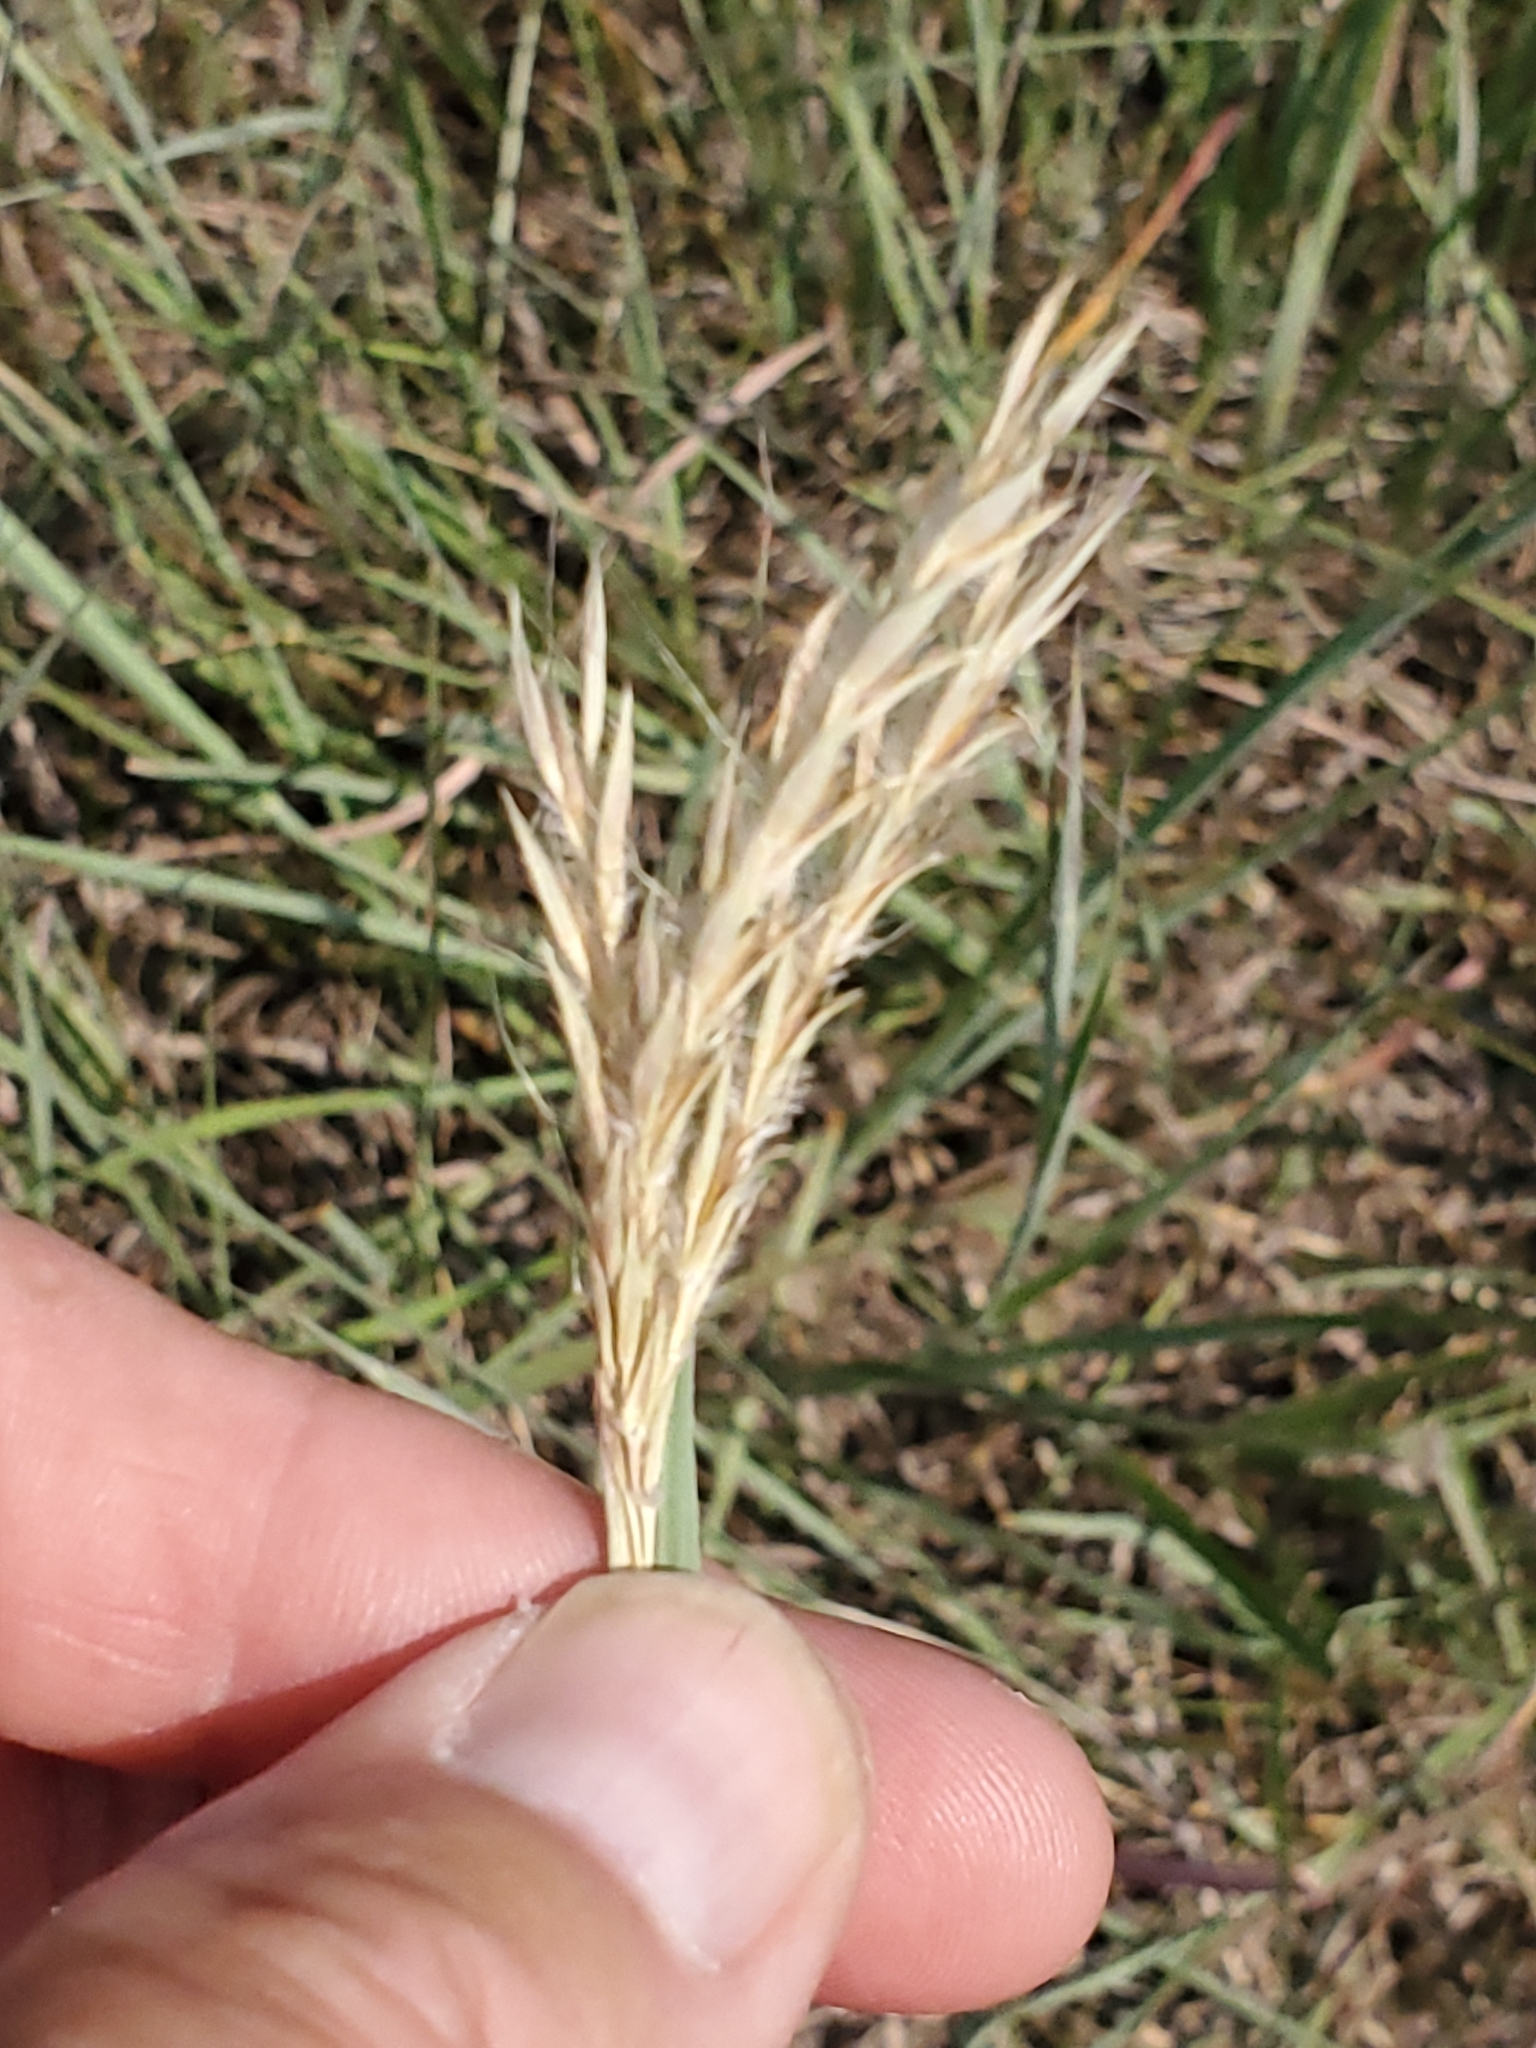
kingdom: Plantae
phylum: Tracheophyta
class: Liliopsida
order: Poales
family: Poaceae
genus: Andropogon
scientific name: Andropogon gerardi
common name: Big bluestem
